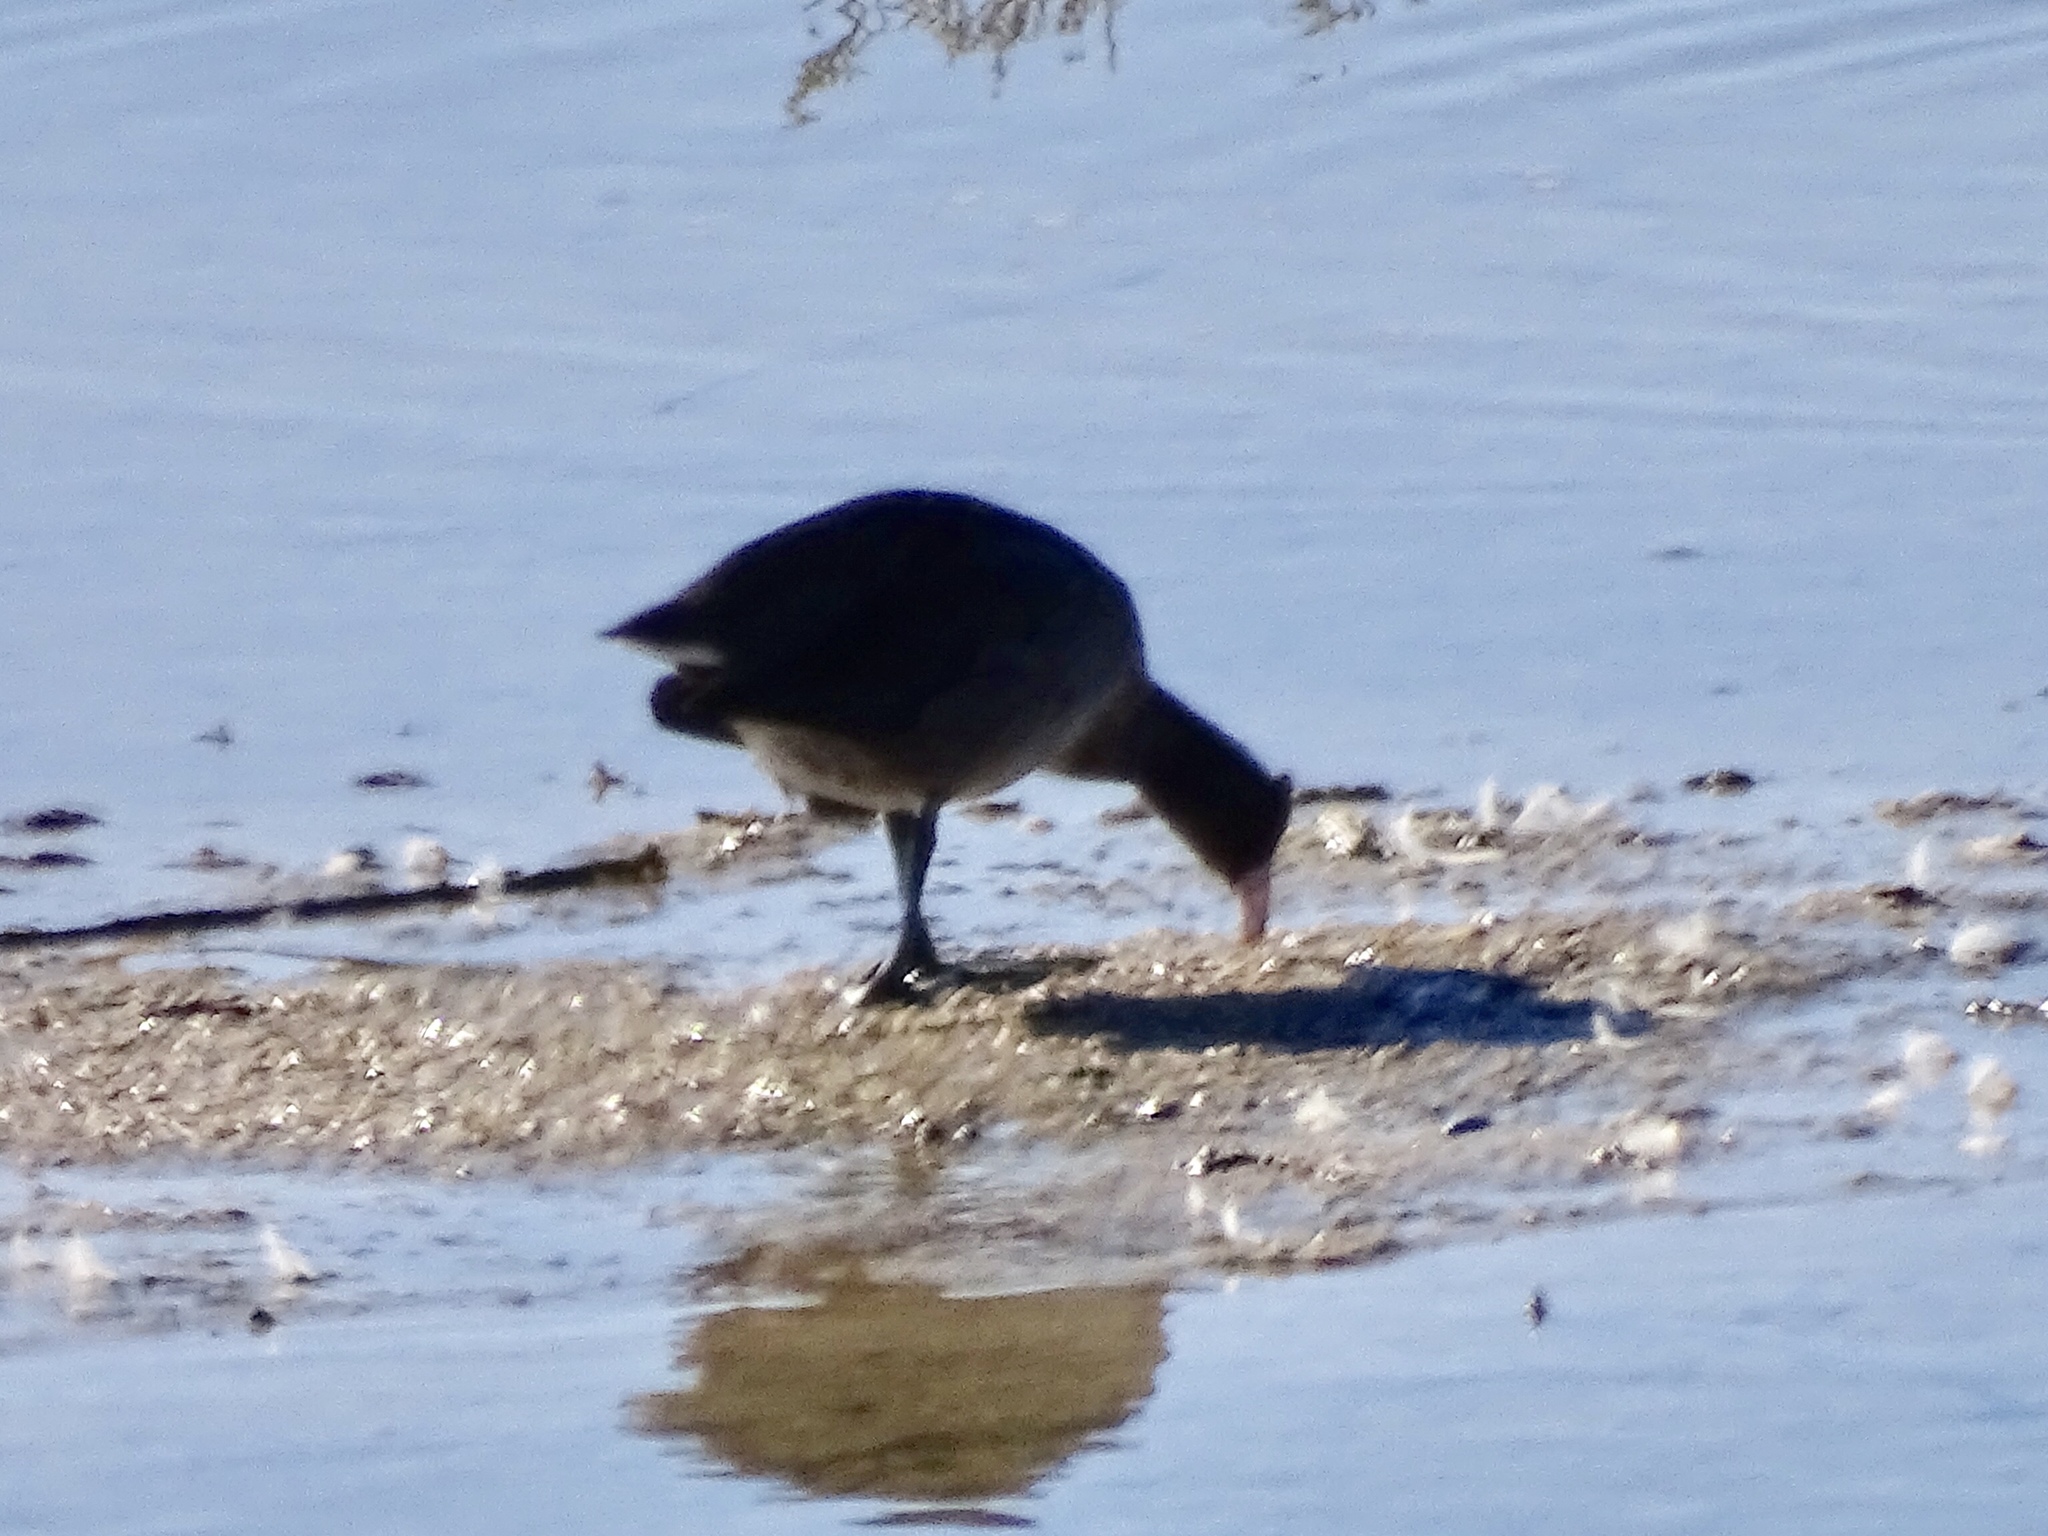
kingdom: Animalia
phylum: Chordata
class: Aves
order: Gruiformes
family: Rallidae
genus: Fulica
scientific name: Fulica americana
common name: American coot
